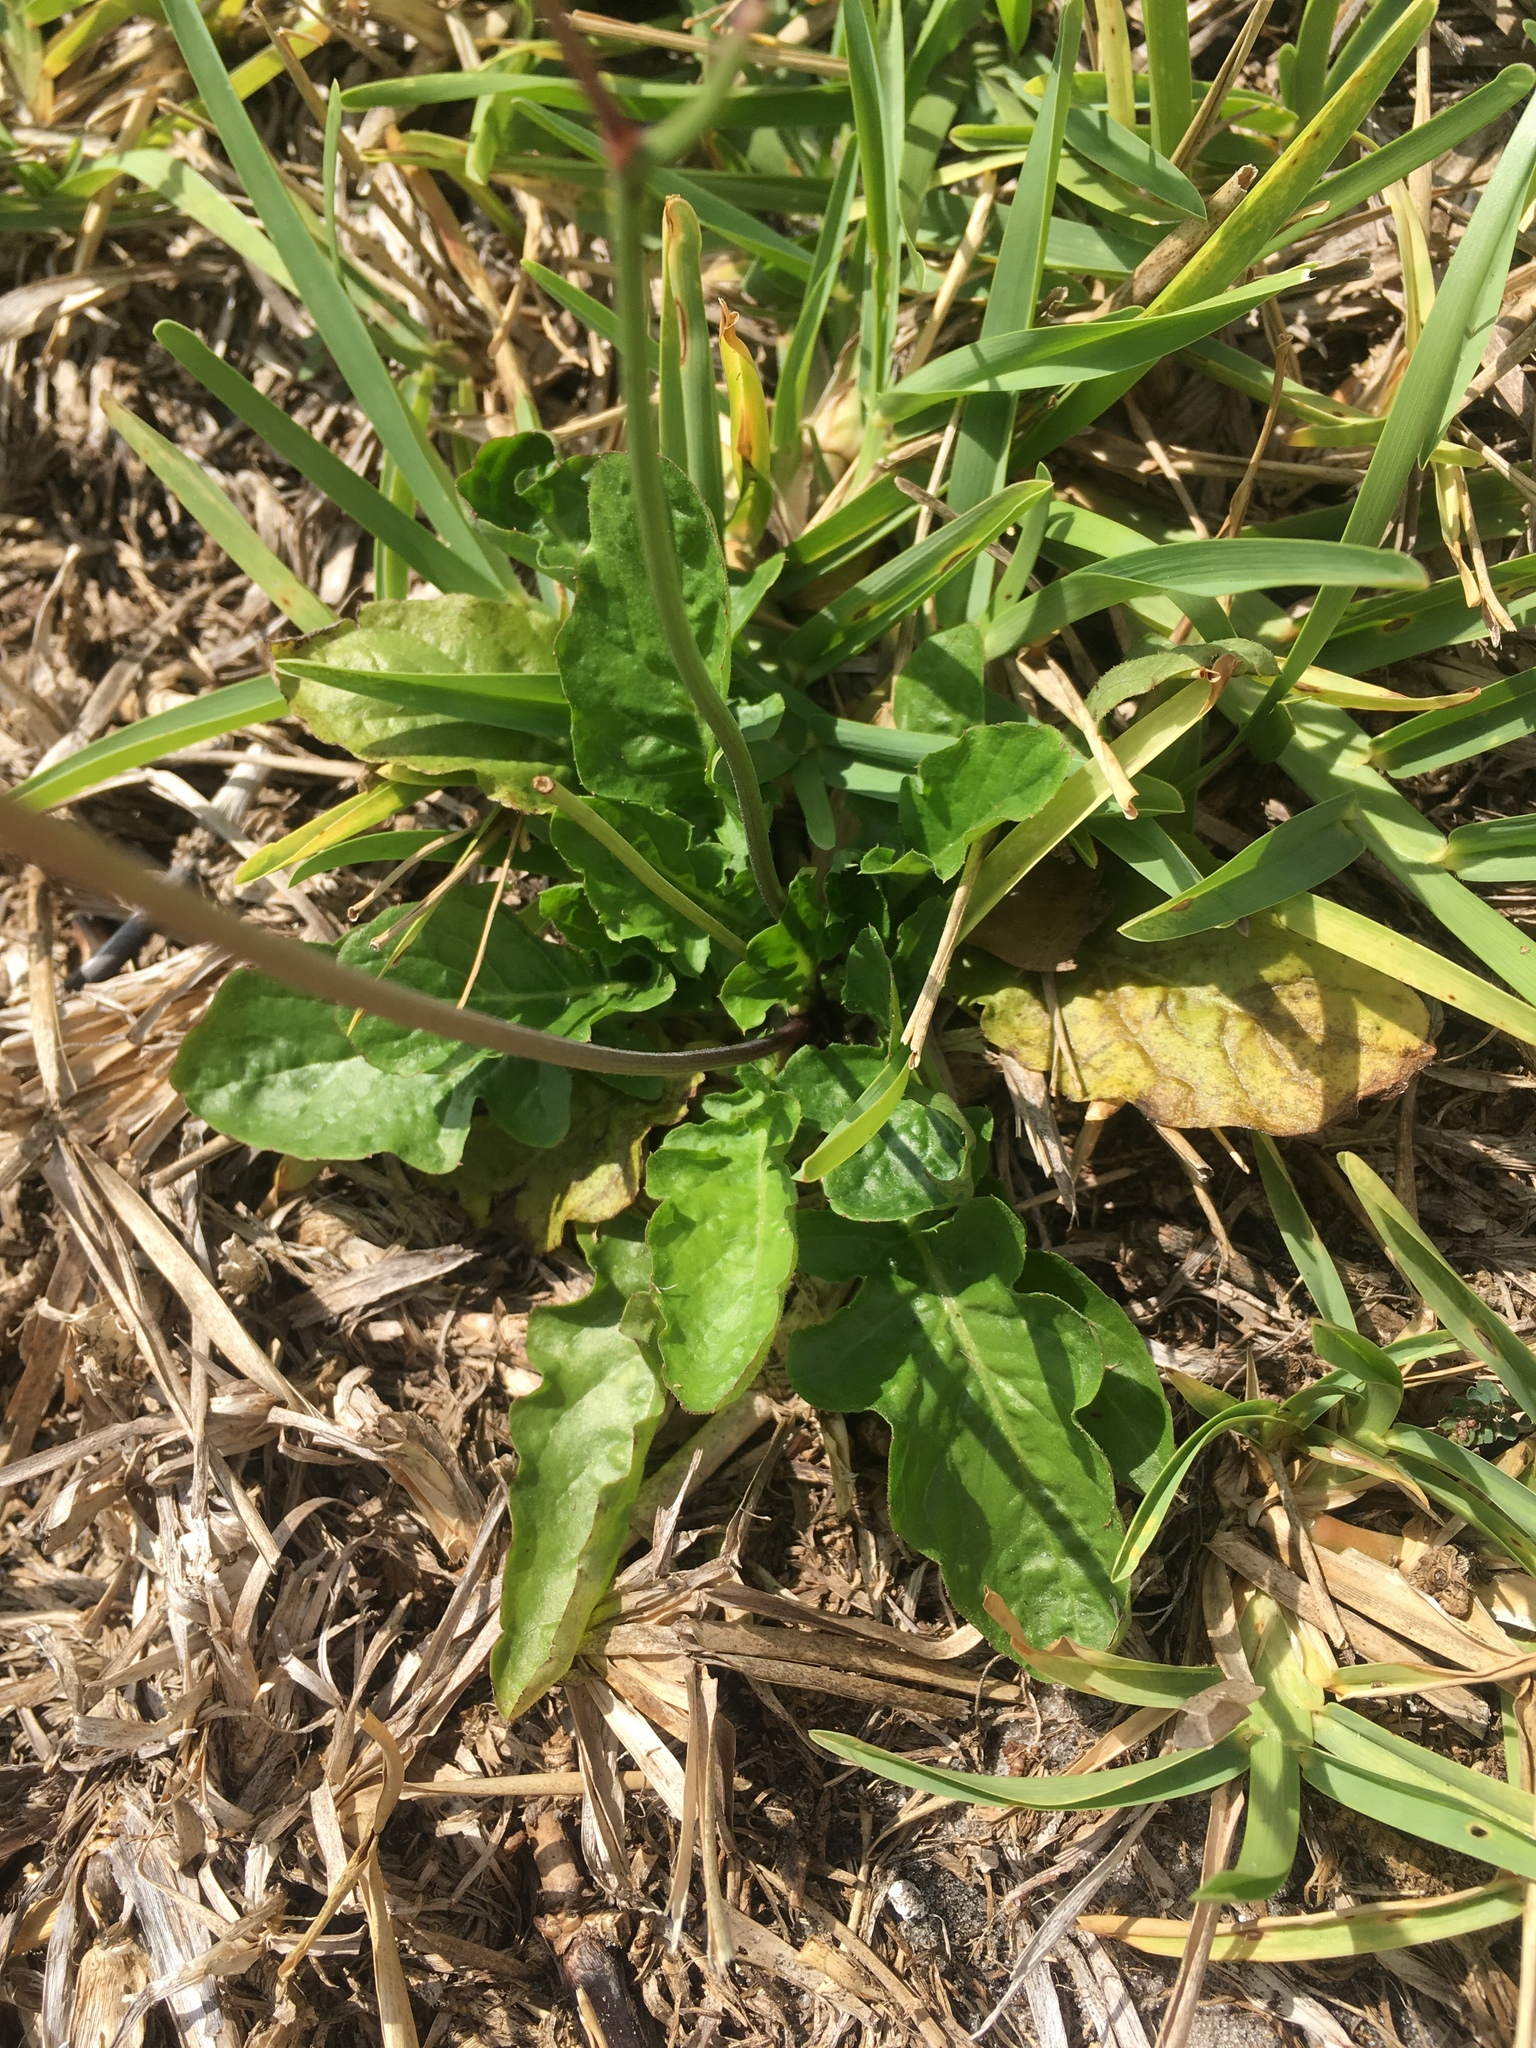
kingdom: Plantae
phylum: Tracheophyta
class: Magnoliopsida
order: Asterales
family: Asteraceae
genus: Youngia
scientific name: Youngia japonica
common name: Oriental false hawksbeard
